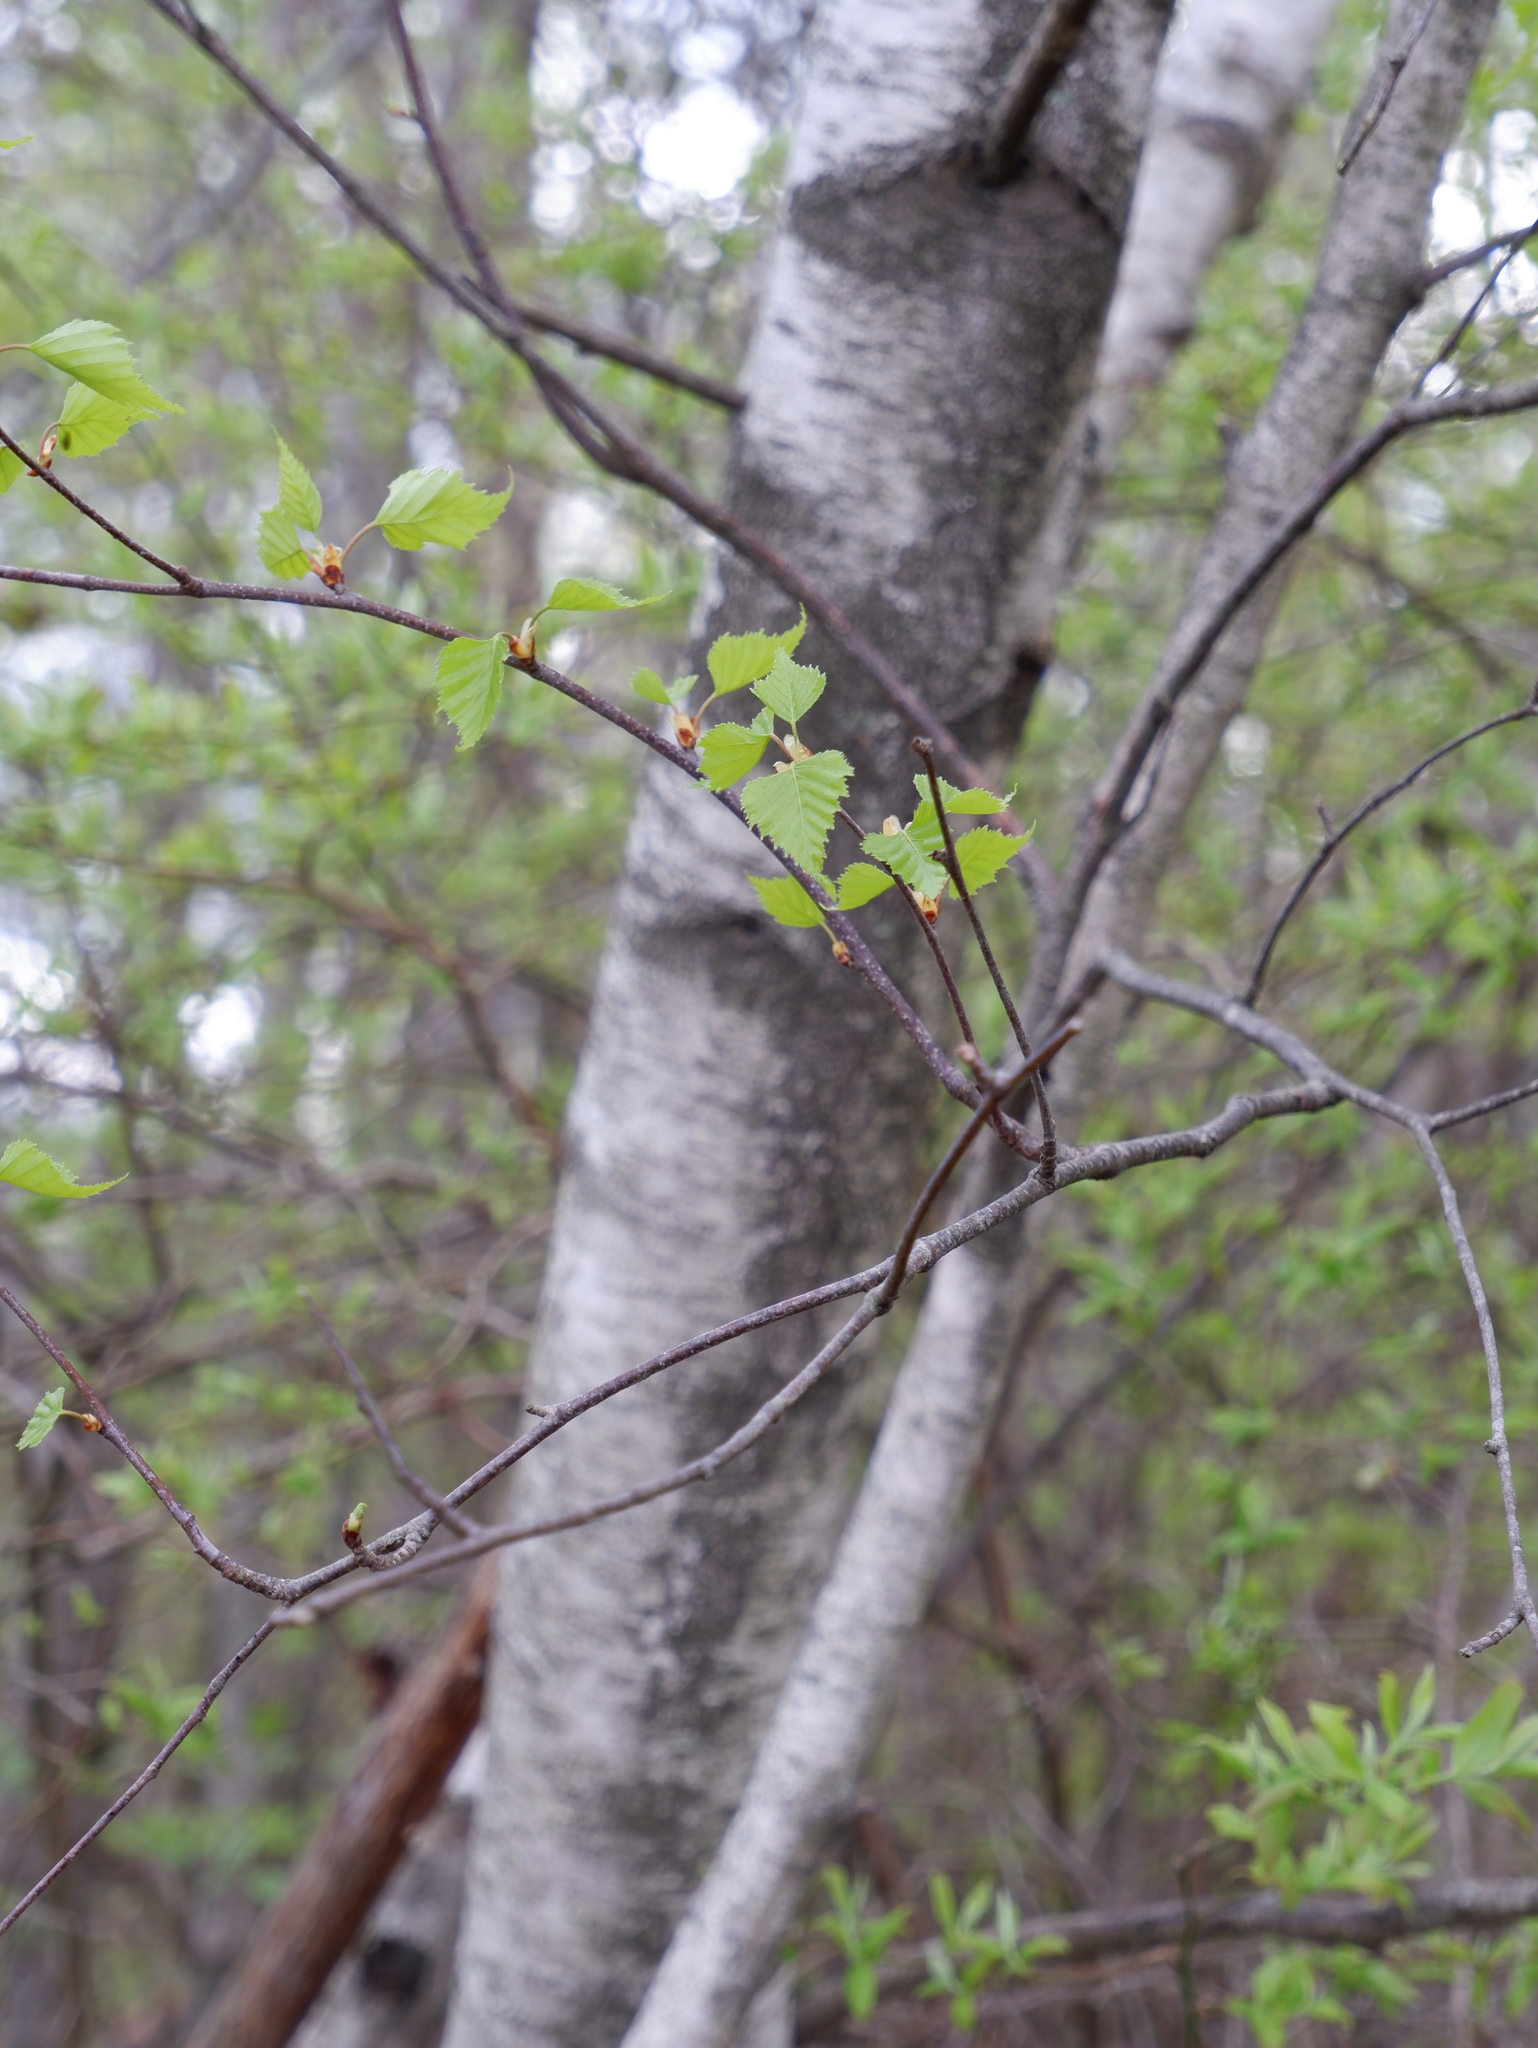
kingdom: Plantae
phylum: Tracheophyta
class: Magnoliopsida
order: Fagales
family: Betulaceae
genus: Betula
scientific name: Betula populifolia
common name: Fire birch
